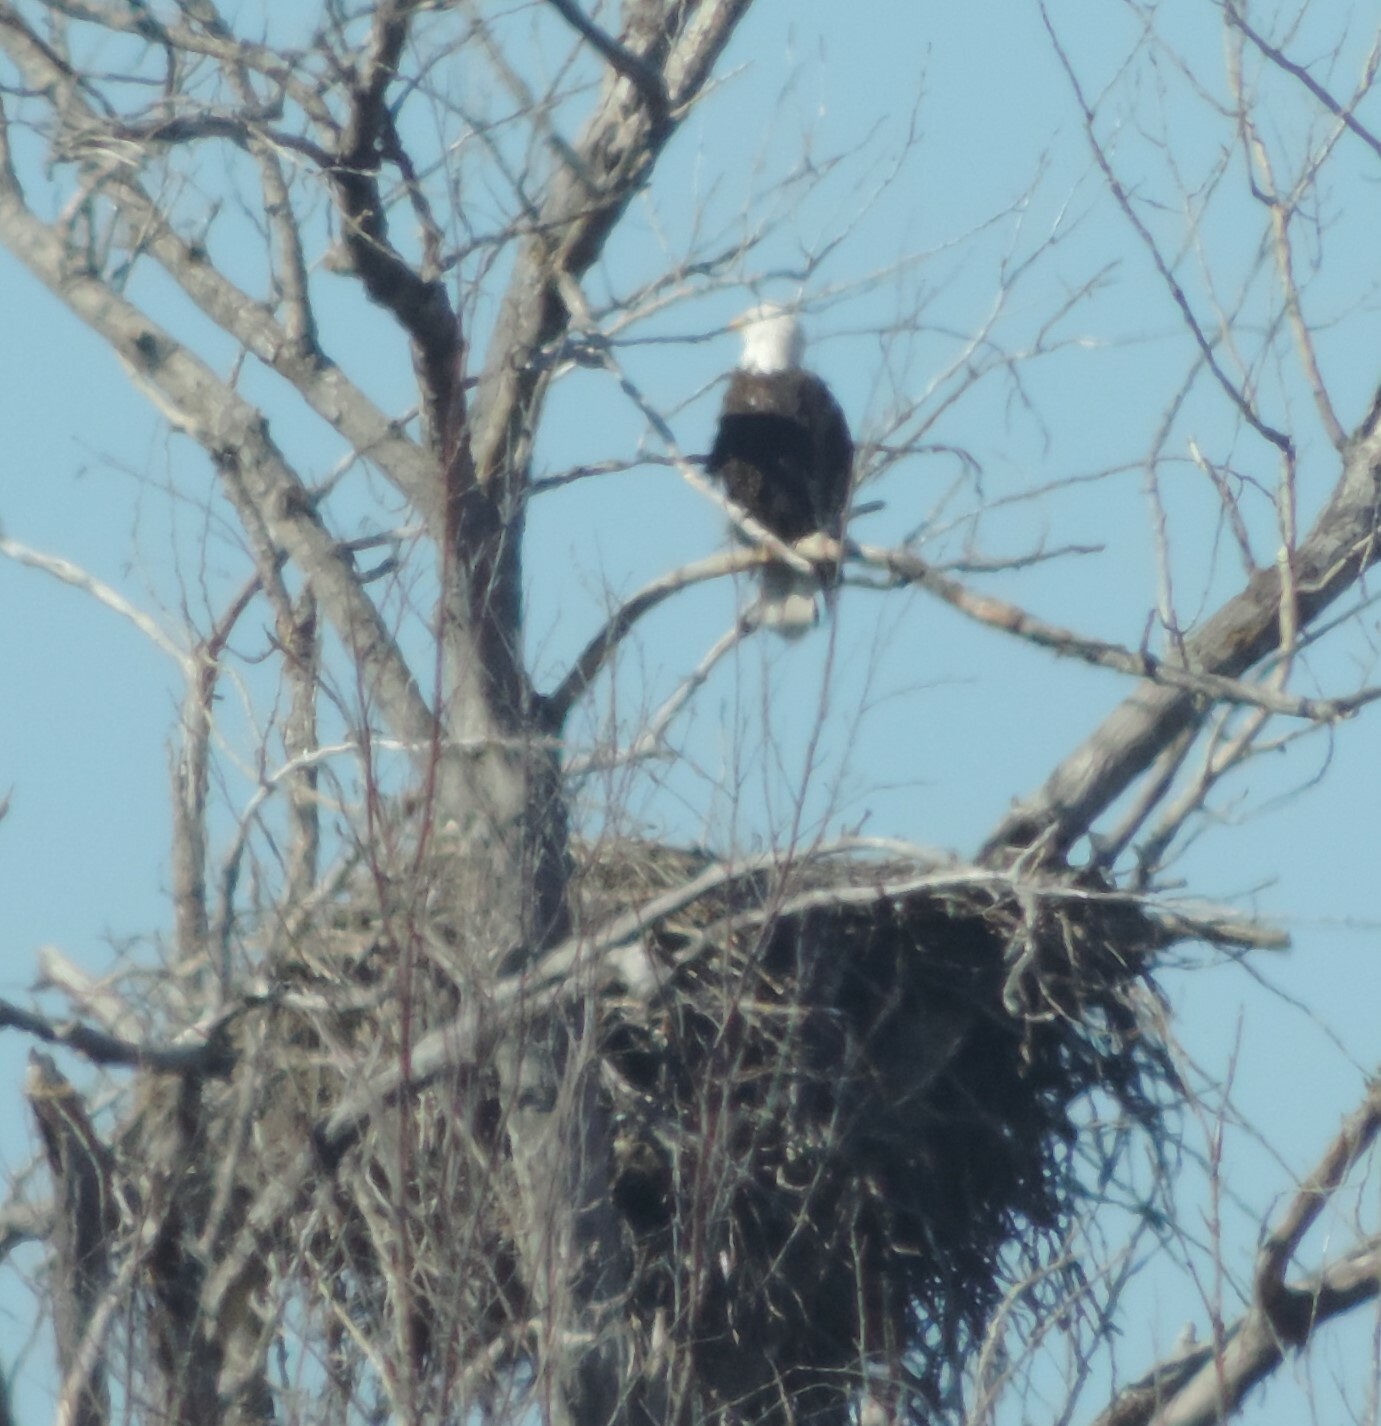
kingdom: Animalia
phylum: Chordata
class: Aves
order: Accipitriformes
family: Accipitridae
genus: Haliaeetus
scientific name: Haliaeetus leucocephalus
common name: Bald eagle
